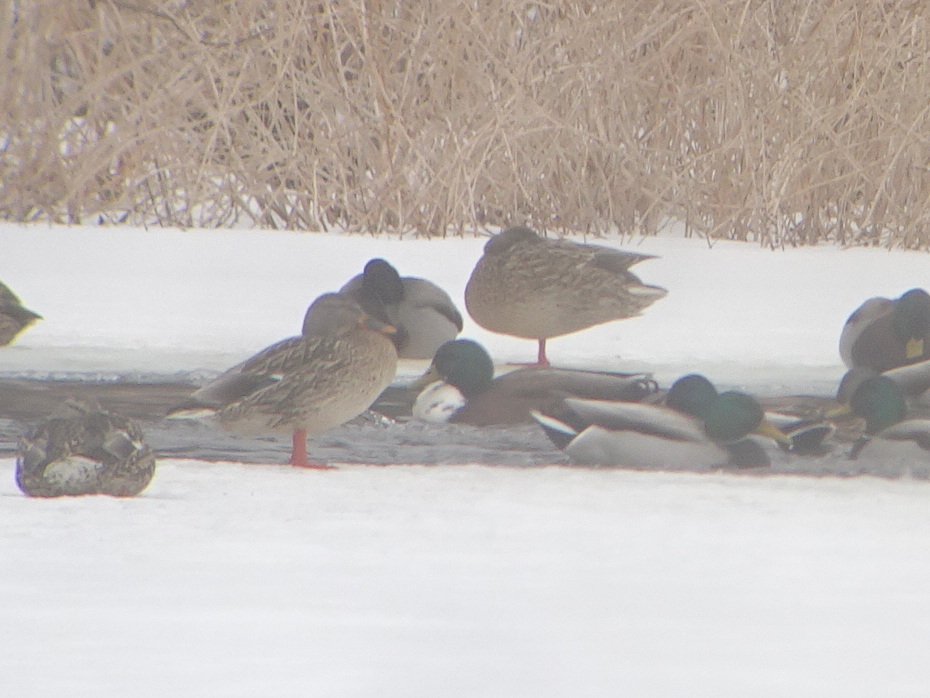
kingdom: Animalia
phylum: Chordata
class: Aves
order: Anseriformes
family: Anatidae
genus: Anas
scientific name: Anas platyrhynchos
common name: Mallard
